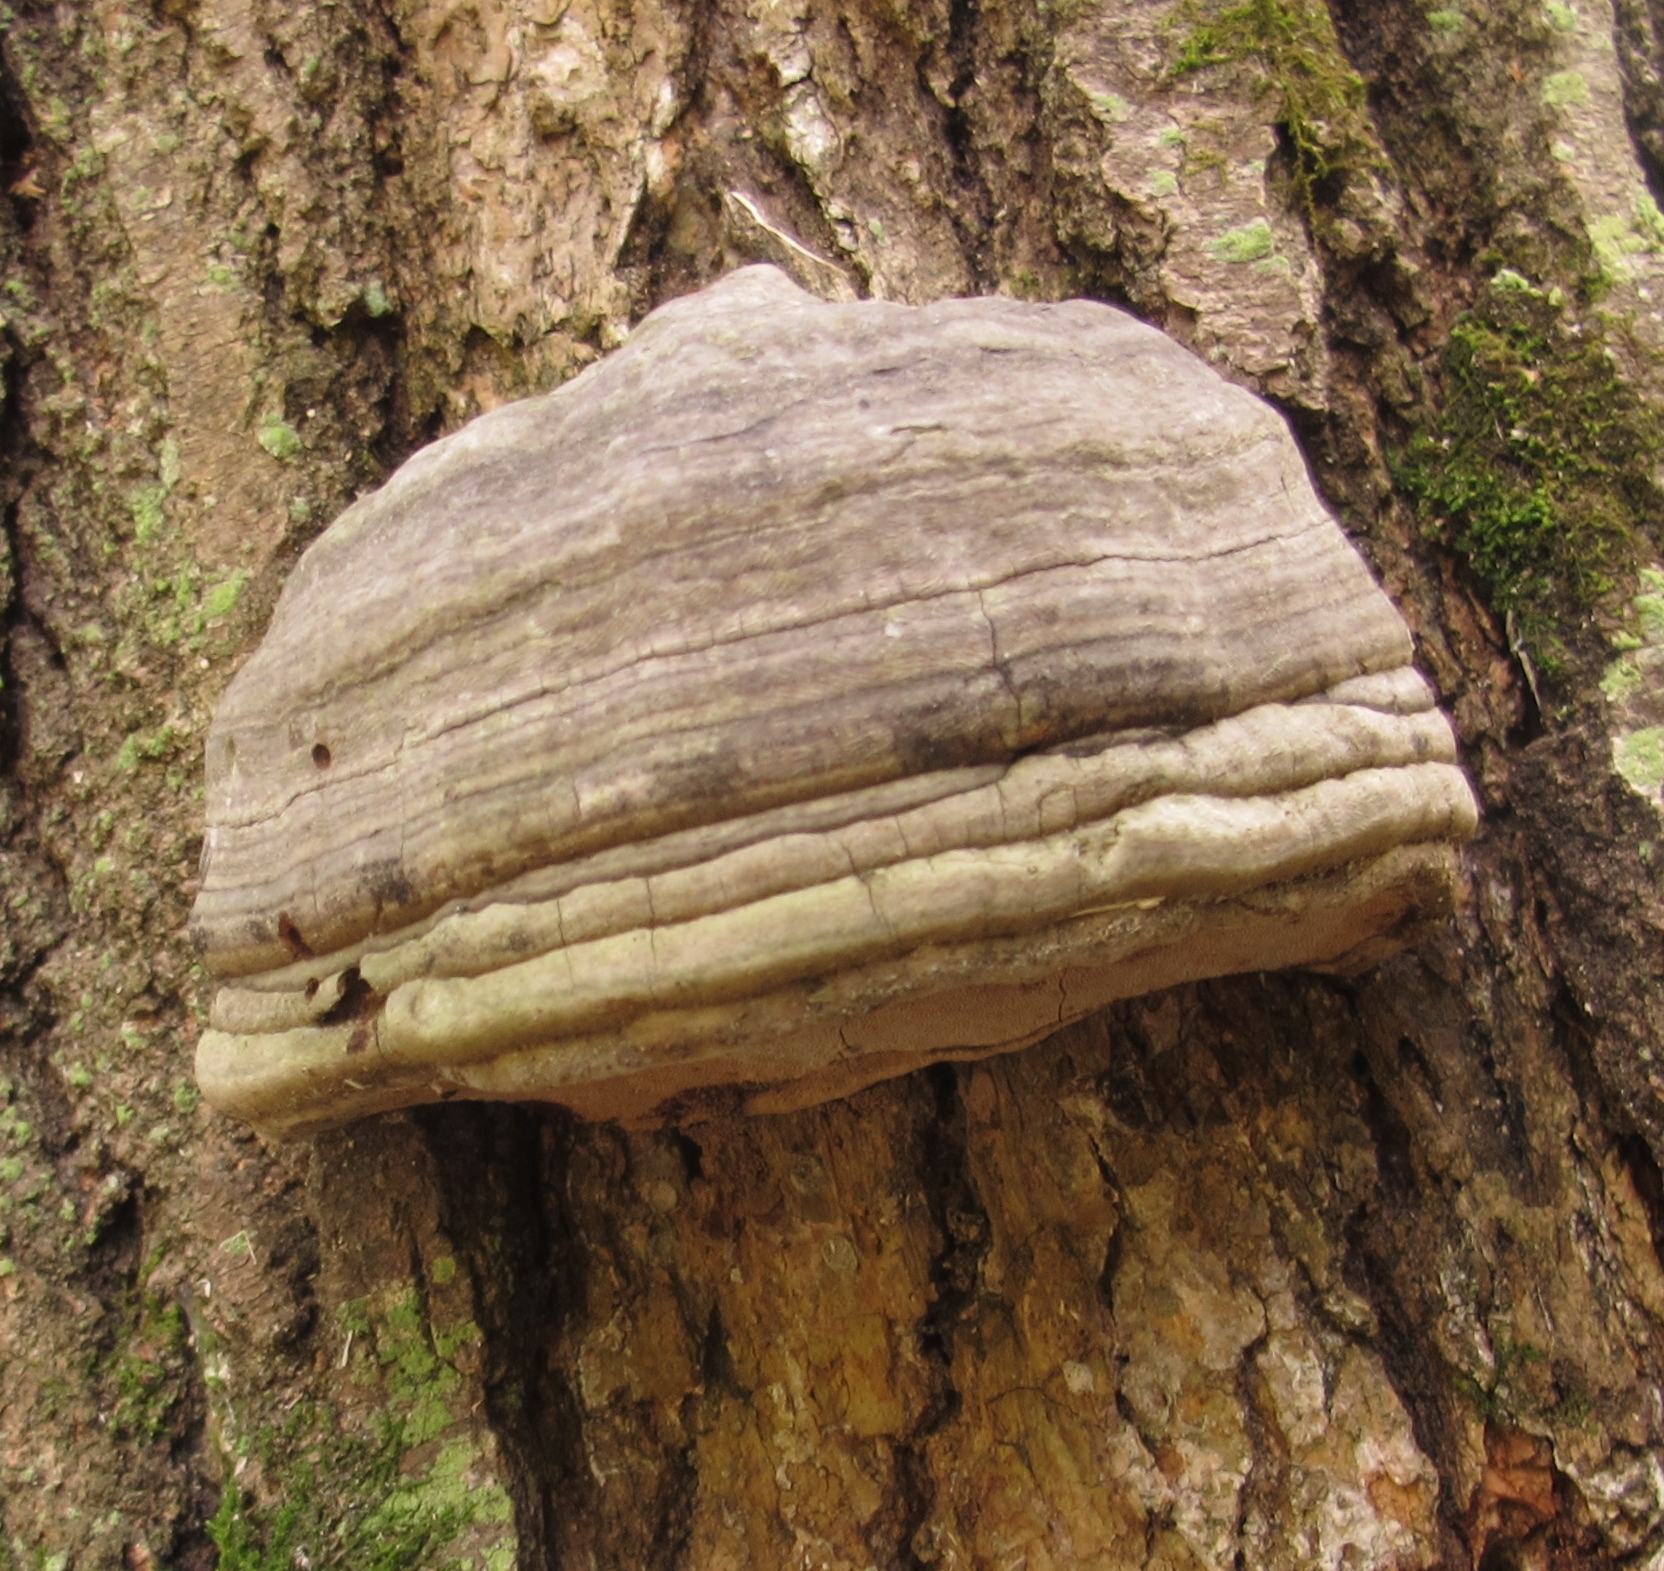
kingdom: Fungi
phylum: Basidiomycota
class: Agaricomycetes
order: Polyporales
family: Polyporaceae
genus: Fomes
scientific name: Fomes fomentarius
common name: Hoof fungus
